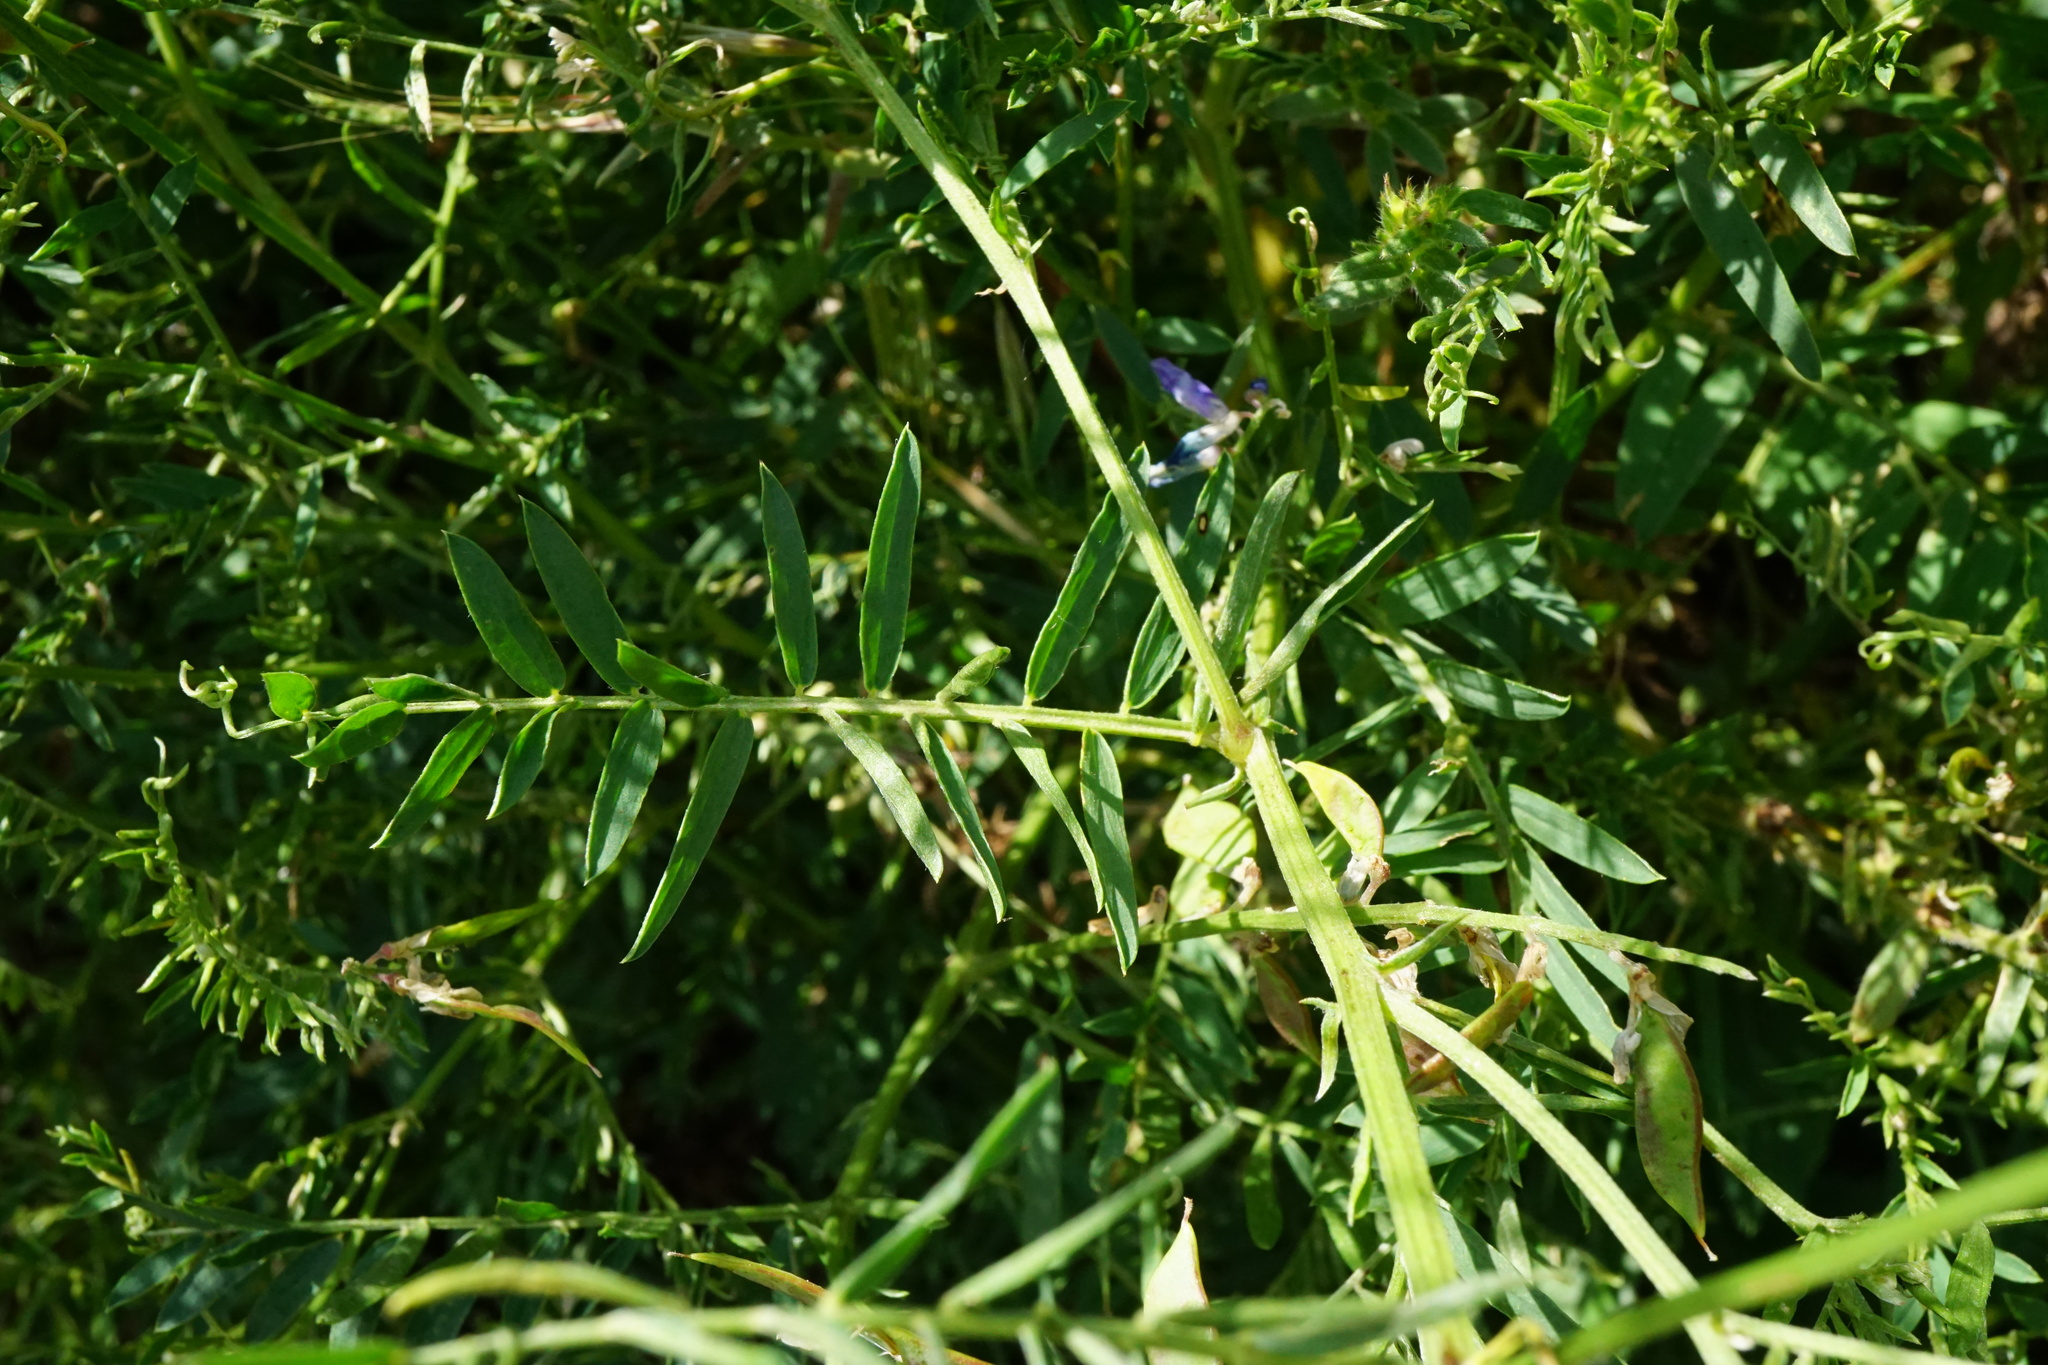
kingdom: Plantae
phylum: Tracheophyta
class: Magnoliopsida
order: Fabales
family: Fabaceae
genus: Vicia
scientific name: Vicia tenuifolia
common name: Fine-leaved vetch
